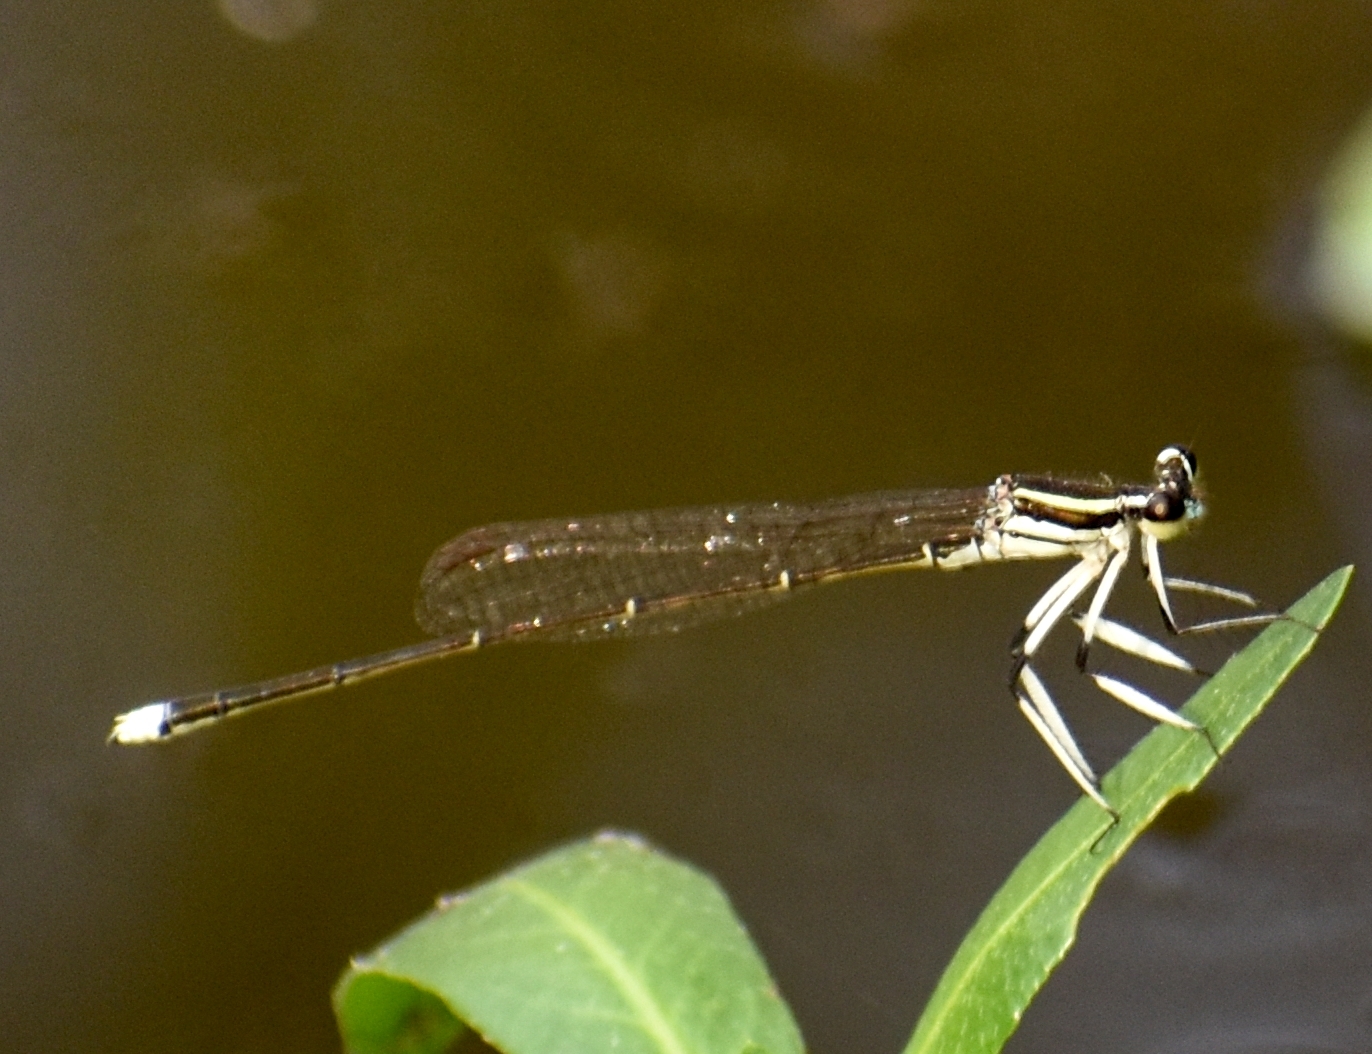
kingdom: Animalia
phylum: Arthropoda
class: Insecta
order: Odonata
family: Platycnemididae
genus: Pseudocopera
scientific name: Pseudocopera ciliata
